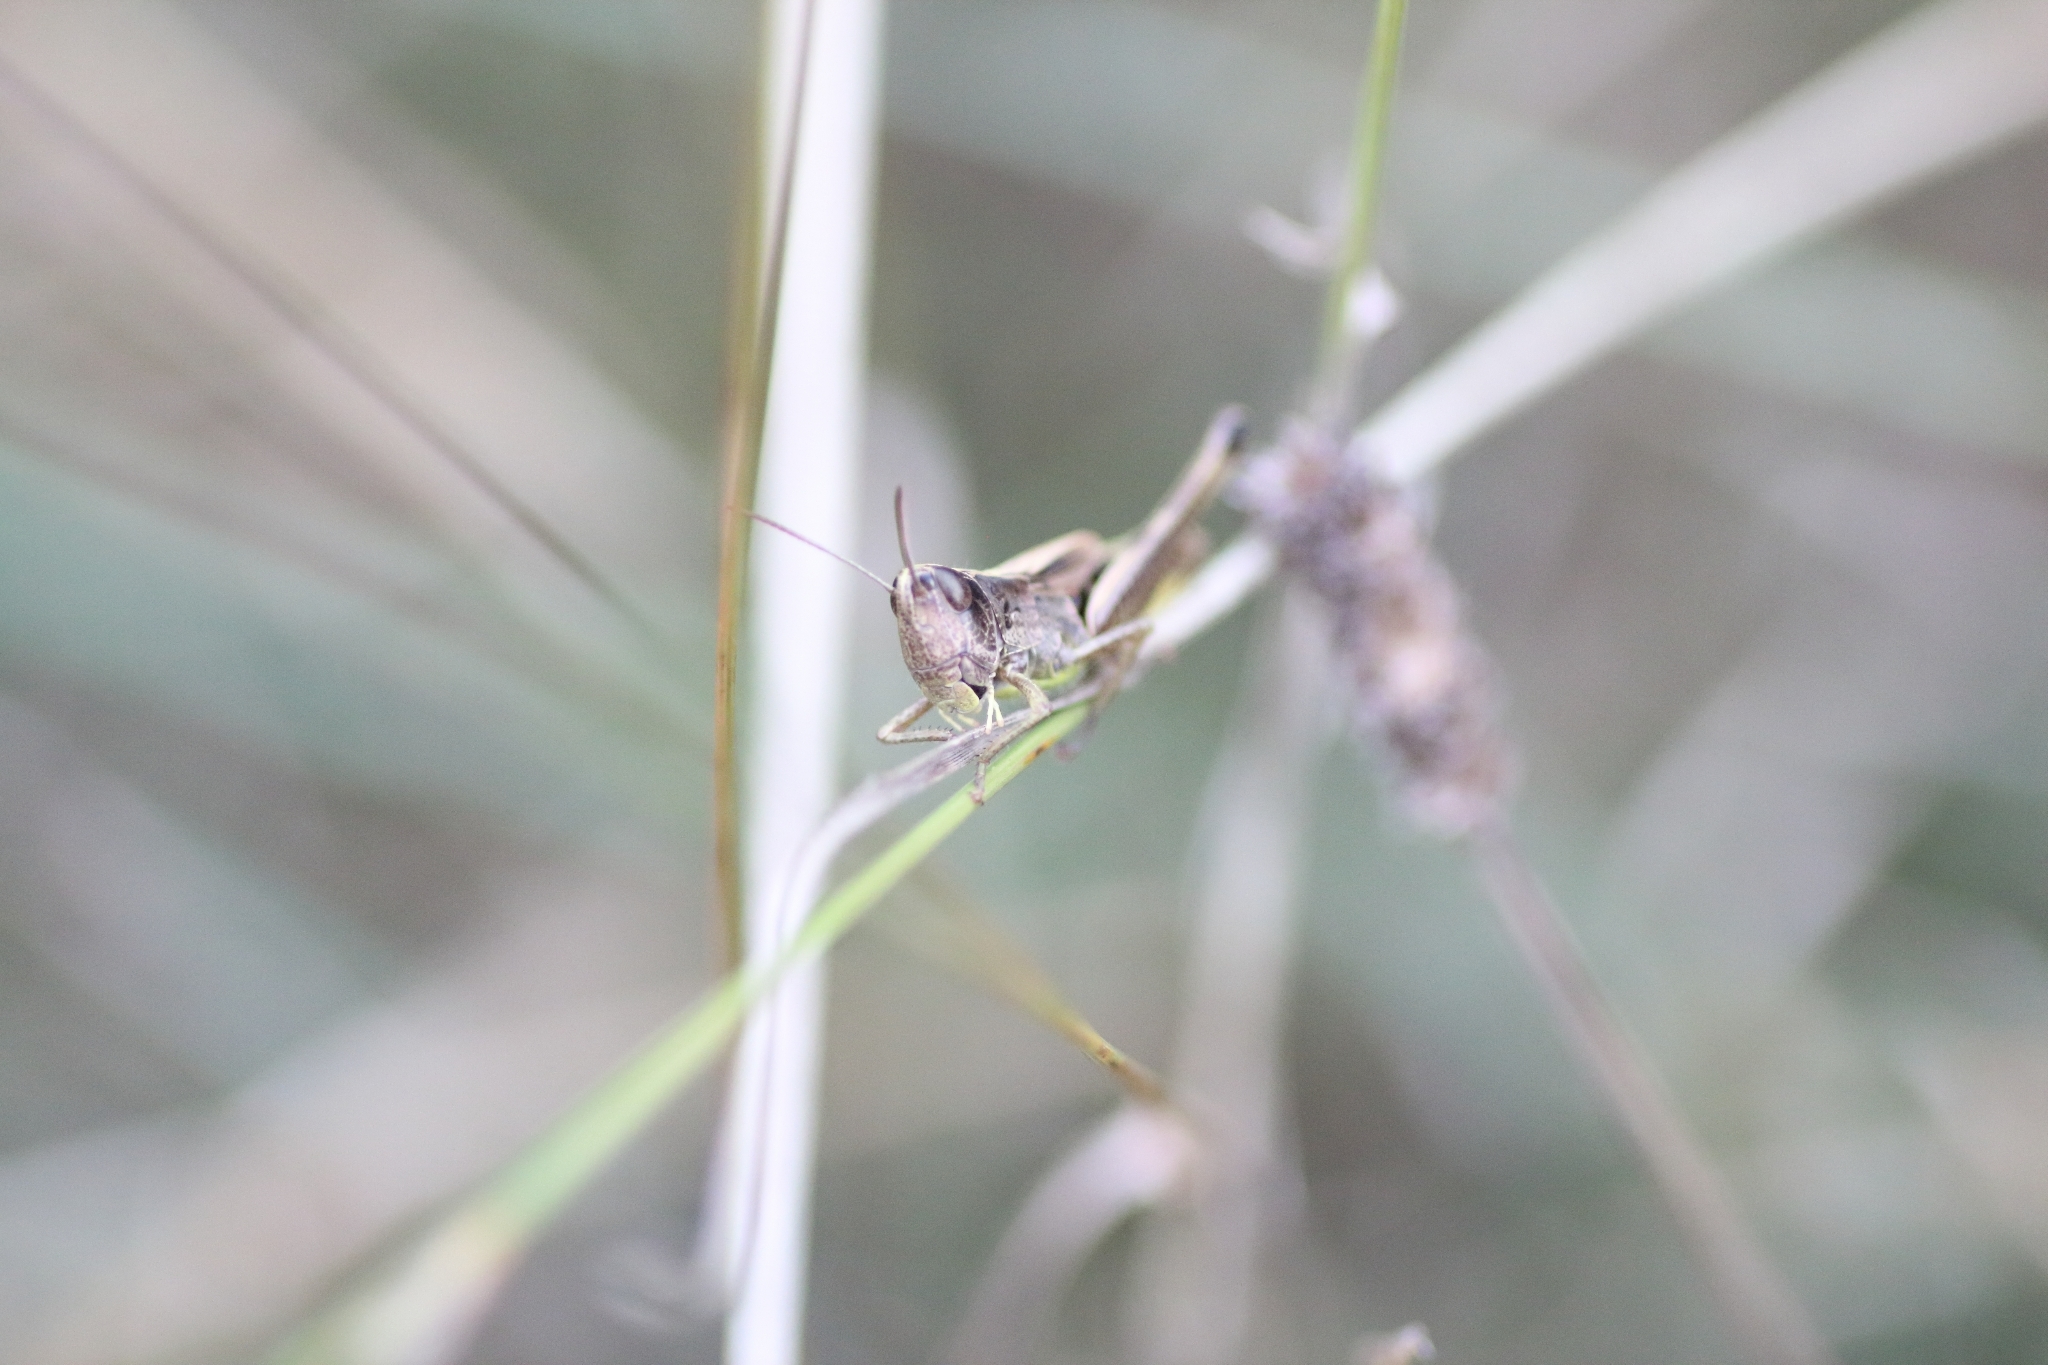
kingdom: Animalia
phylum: Arthropoda
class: Insecta
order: Orthoptera
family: Acrididae
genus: Pseudochorthippus
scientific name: Pseudochorthippus parallelus
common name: Meadow grasshopper
